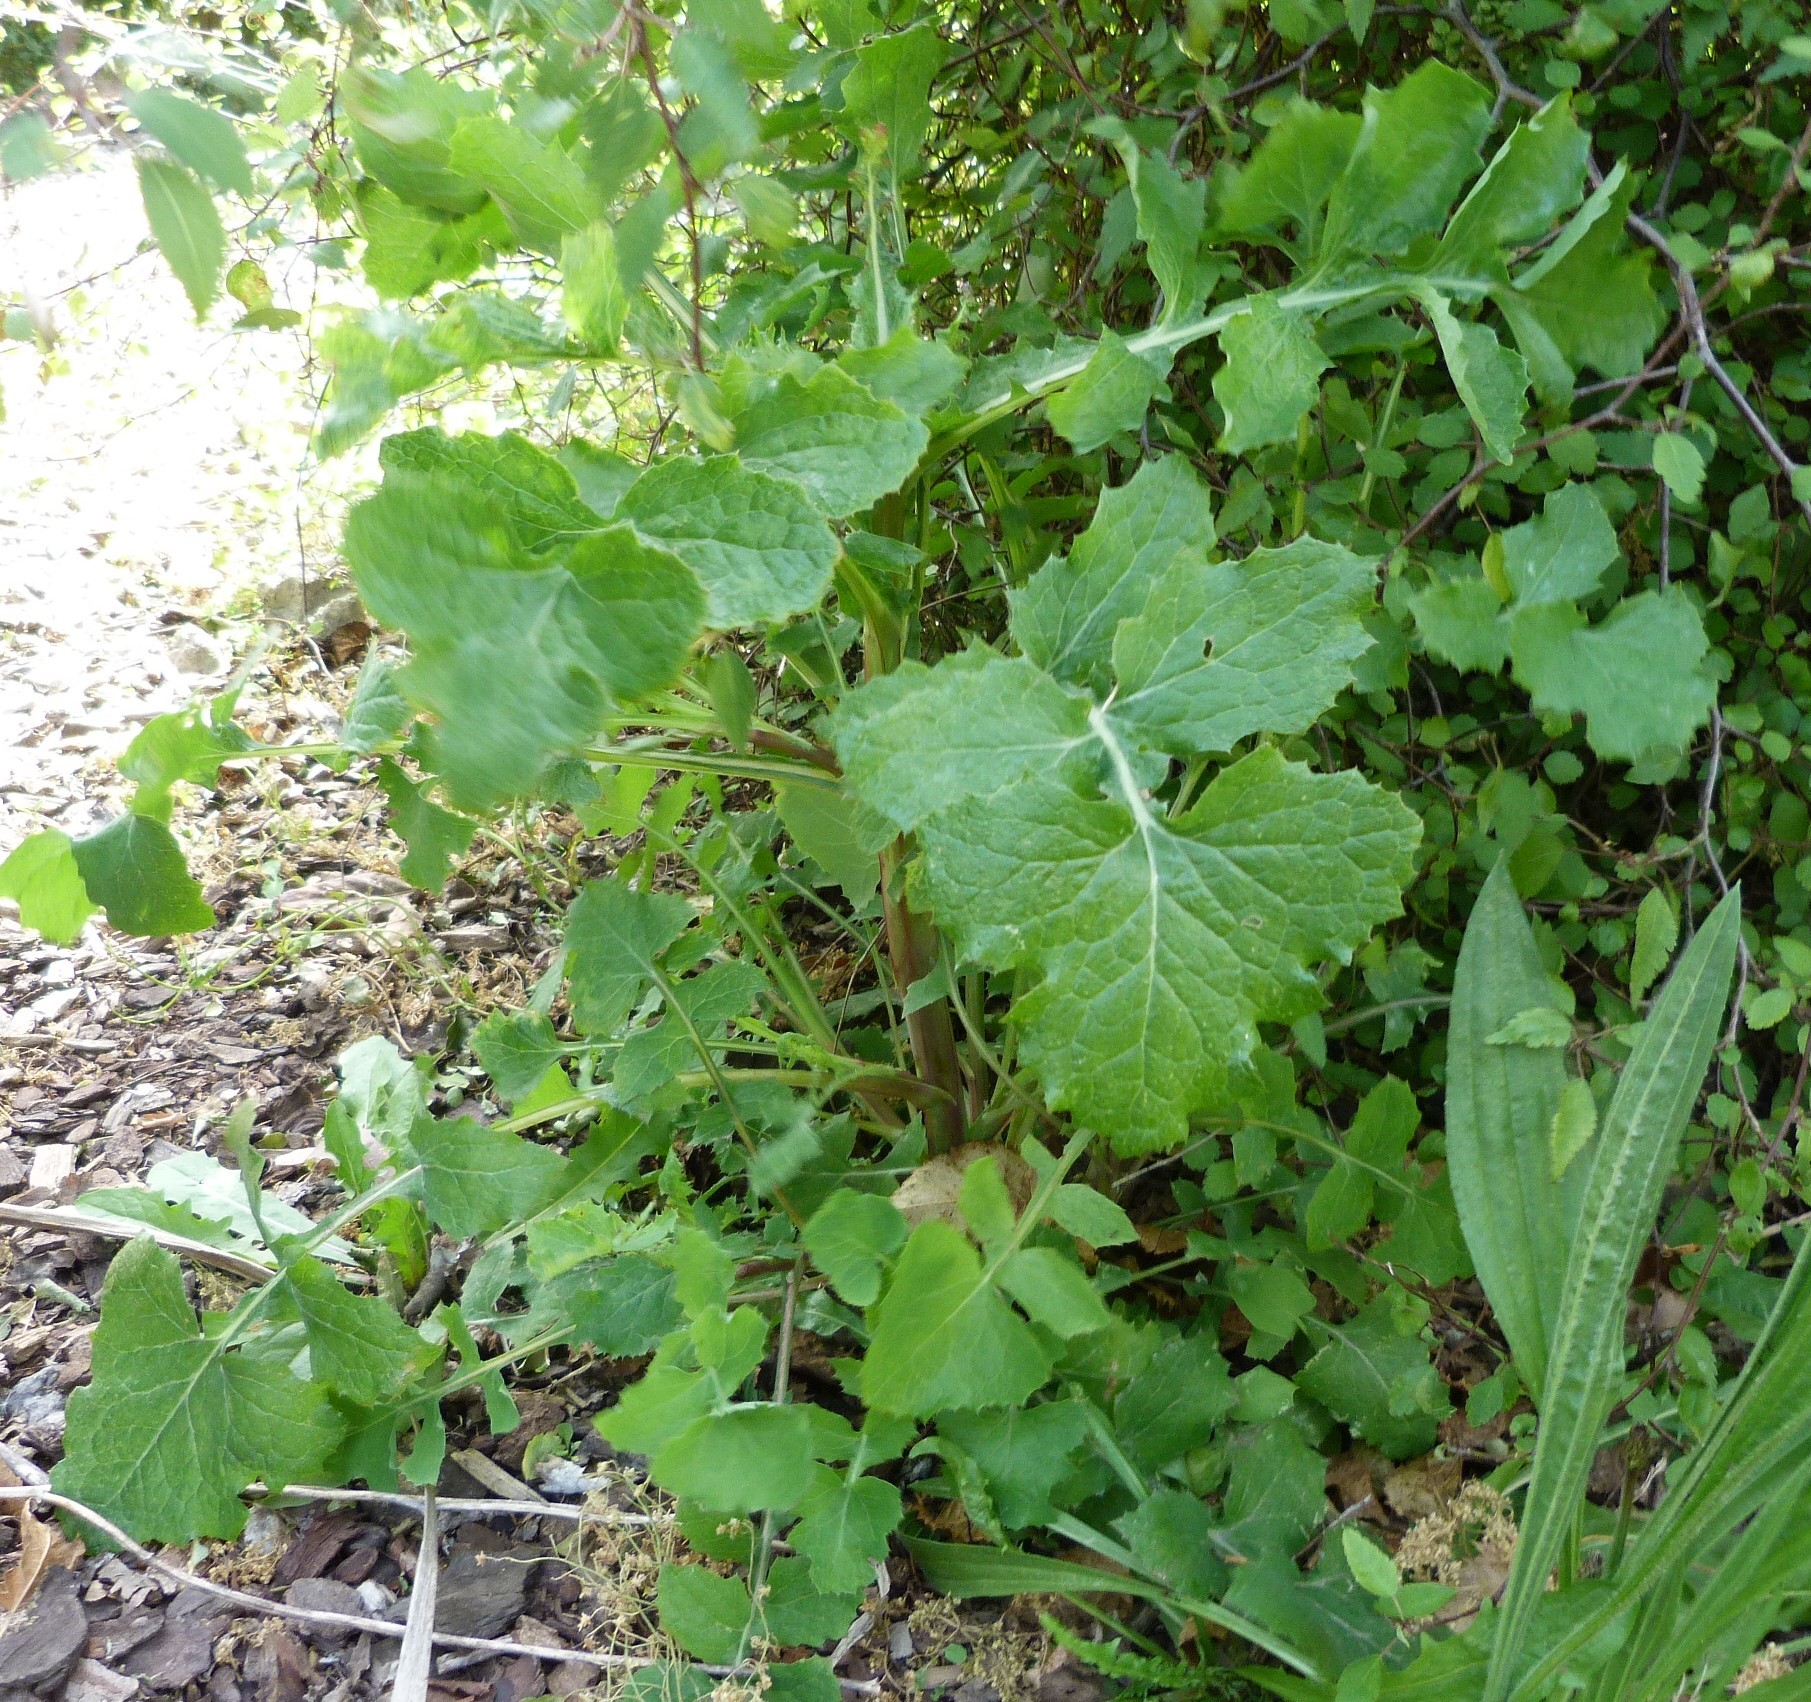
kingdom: Plantae
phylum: Tracheophyta
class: Magnoliopsida
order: Asterales
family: Asteraceae
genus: Sonchus
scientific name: Sonchus oleraceus
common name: Common sowthistle
